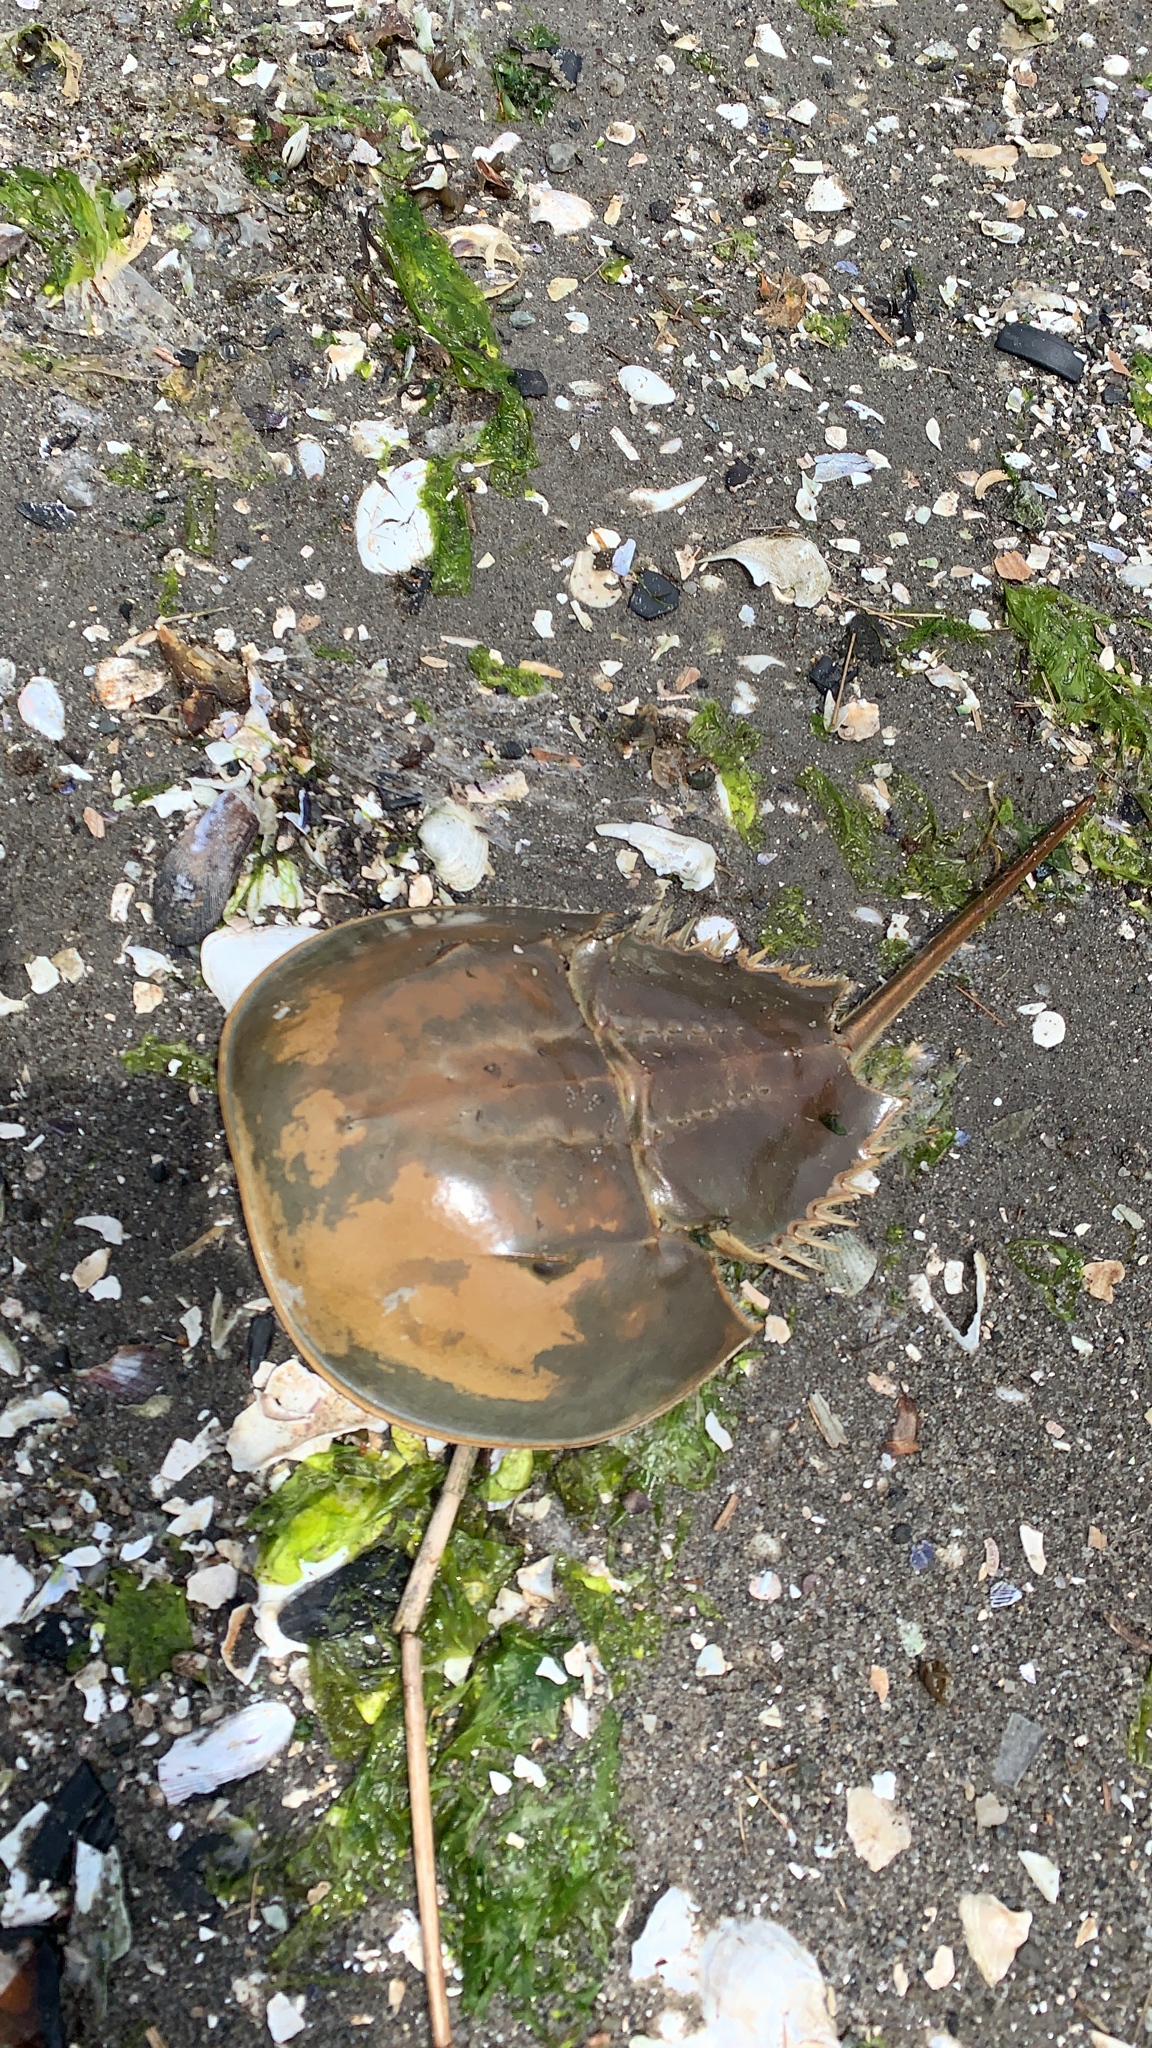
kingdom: Animalia
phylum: Arthropoda
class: Merostomata
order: Xiphosurida
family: Limulidae
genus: Limulus
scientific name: Limulus polyphemus
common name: Horseshoe crab
